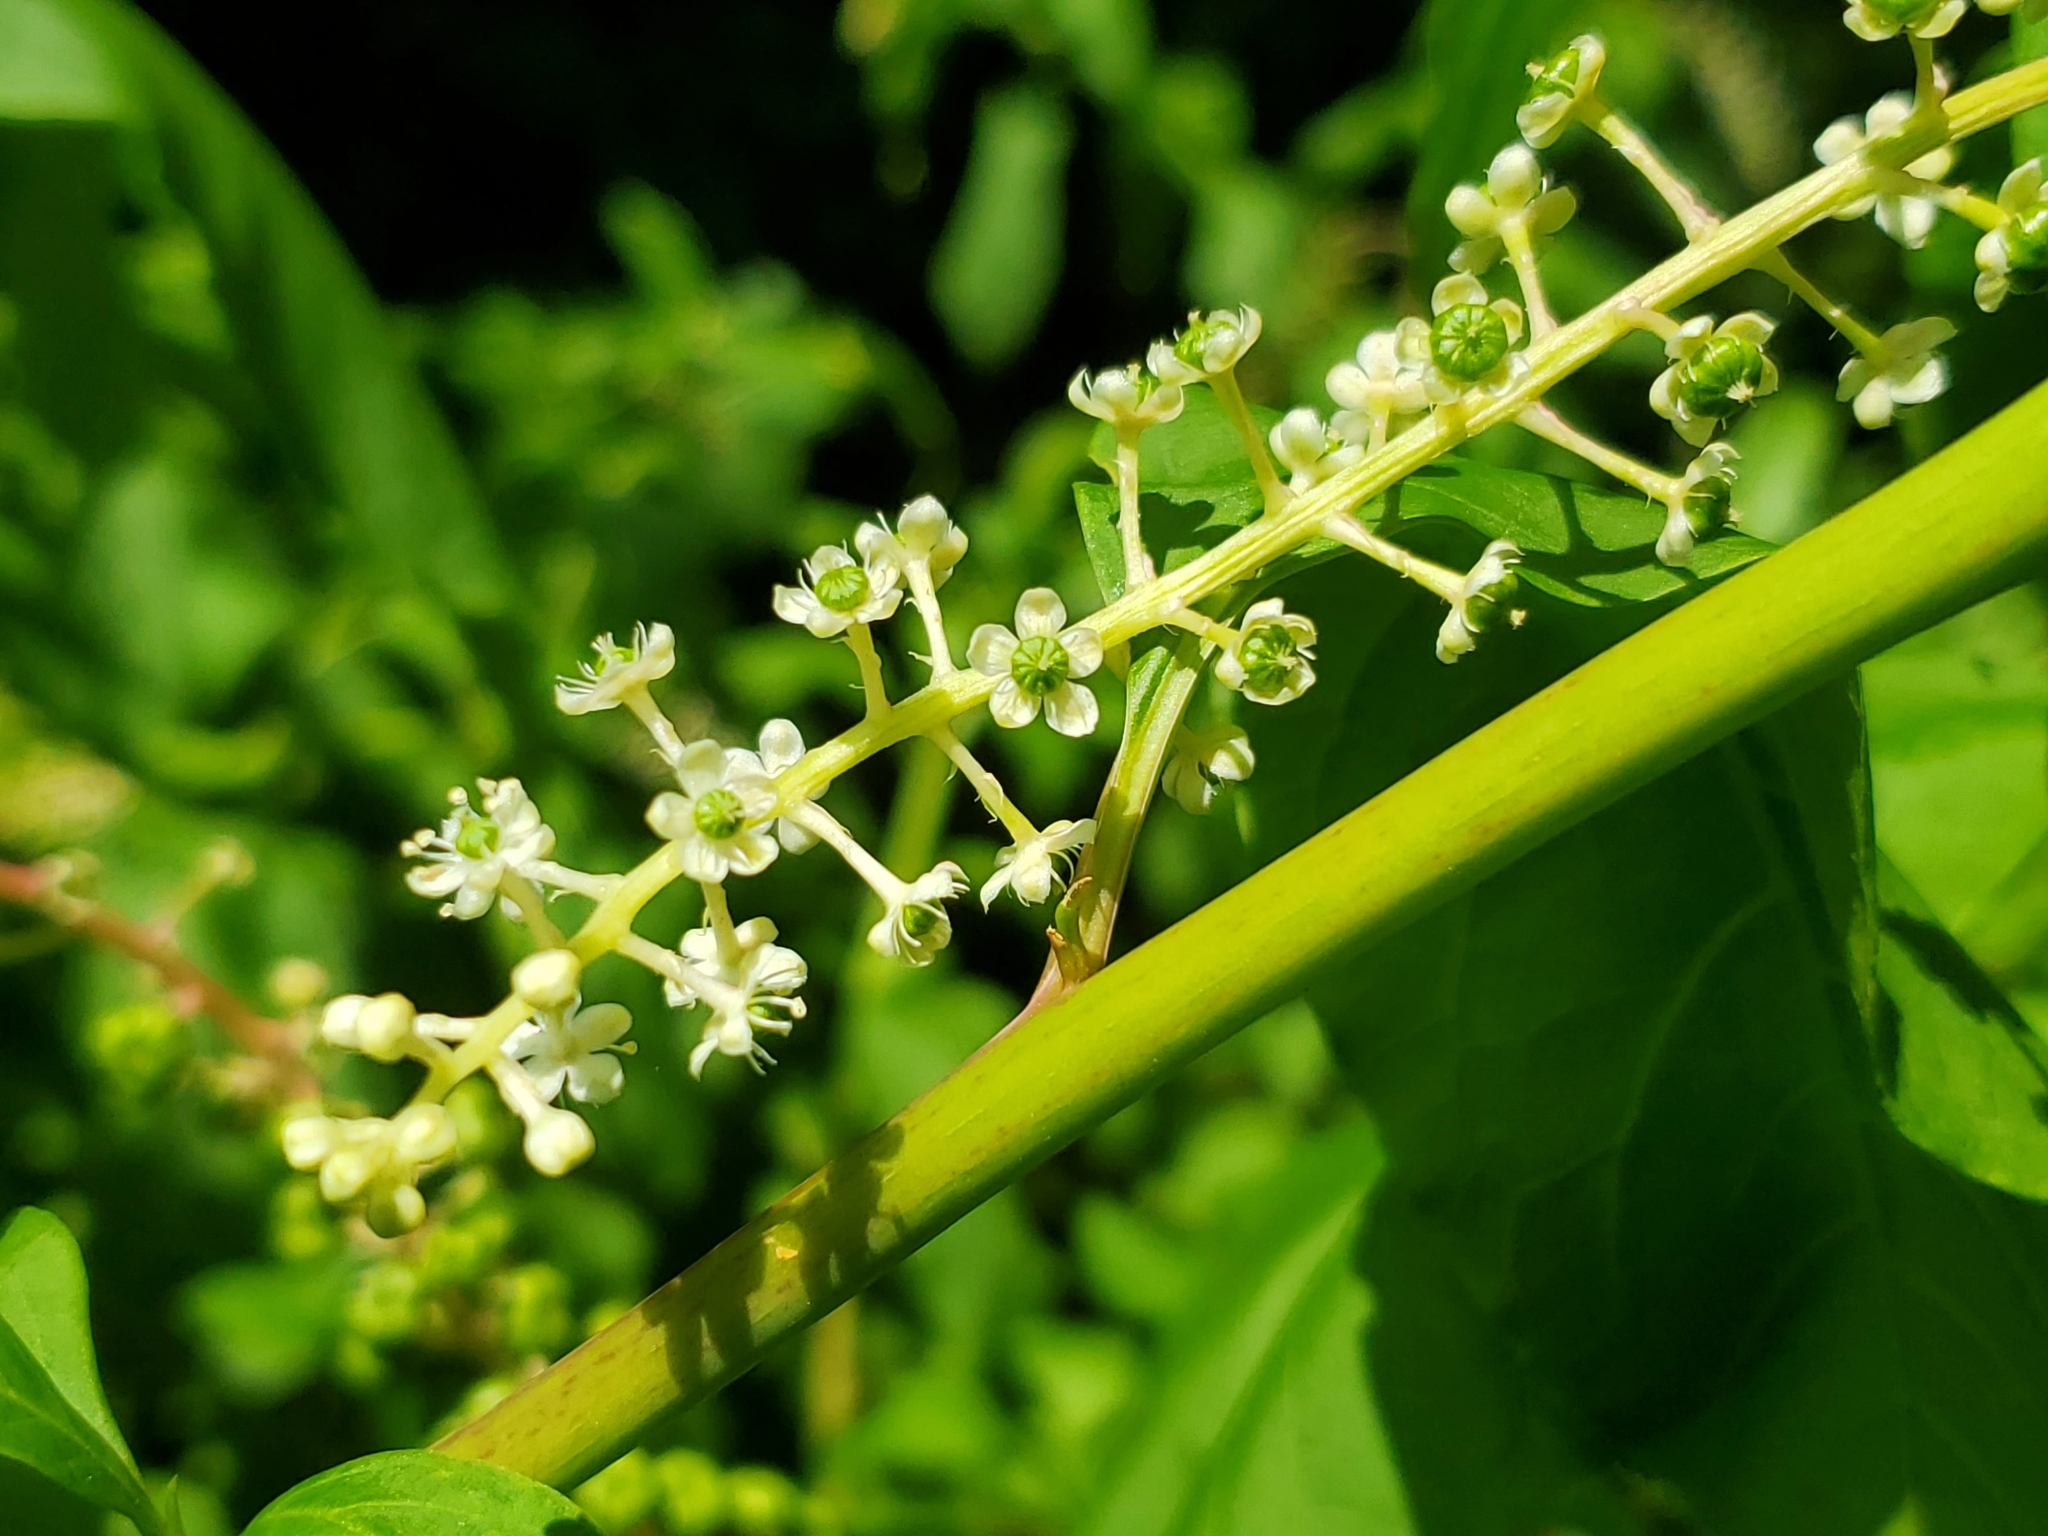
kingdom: Plantae
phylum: Tracheophyta
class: Magnoliopsida
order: Caryophyllales
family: Phytolaccaceae
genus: Phytolacca
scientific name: Phytolacca americana
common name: American pokeweed
